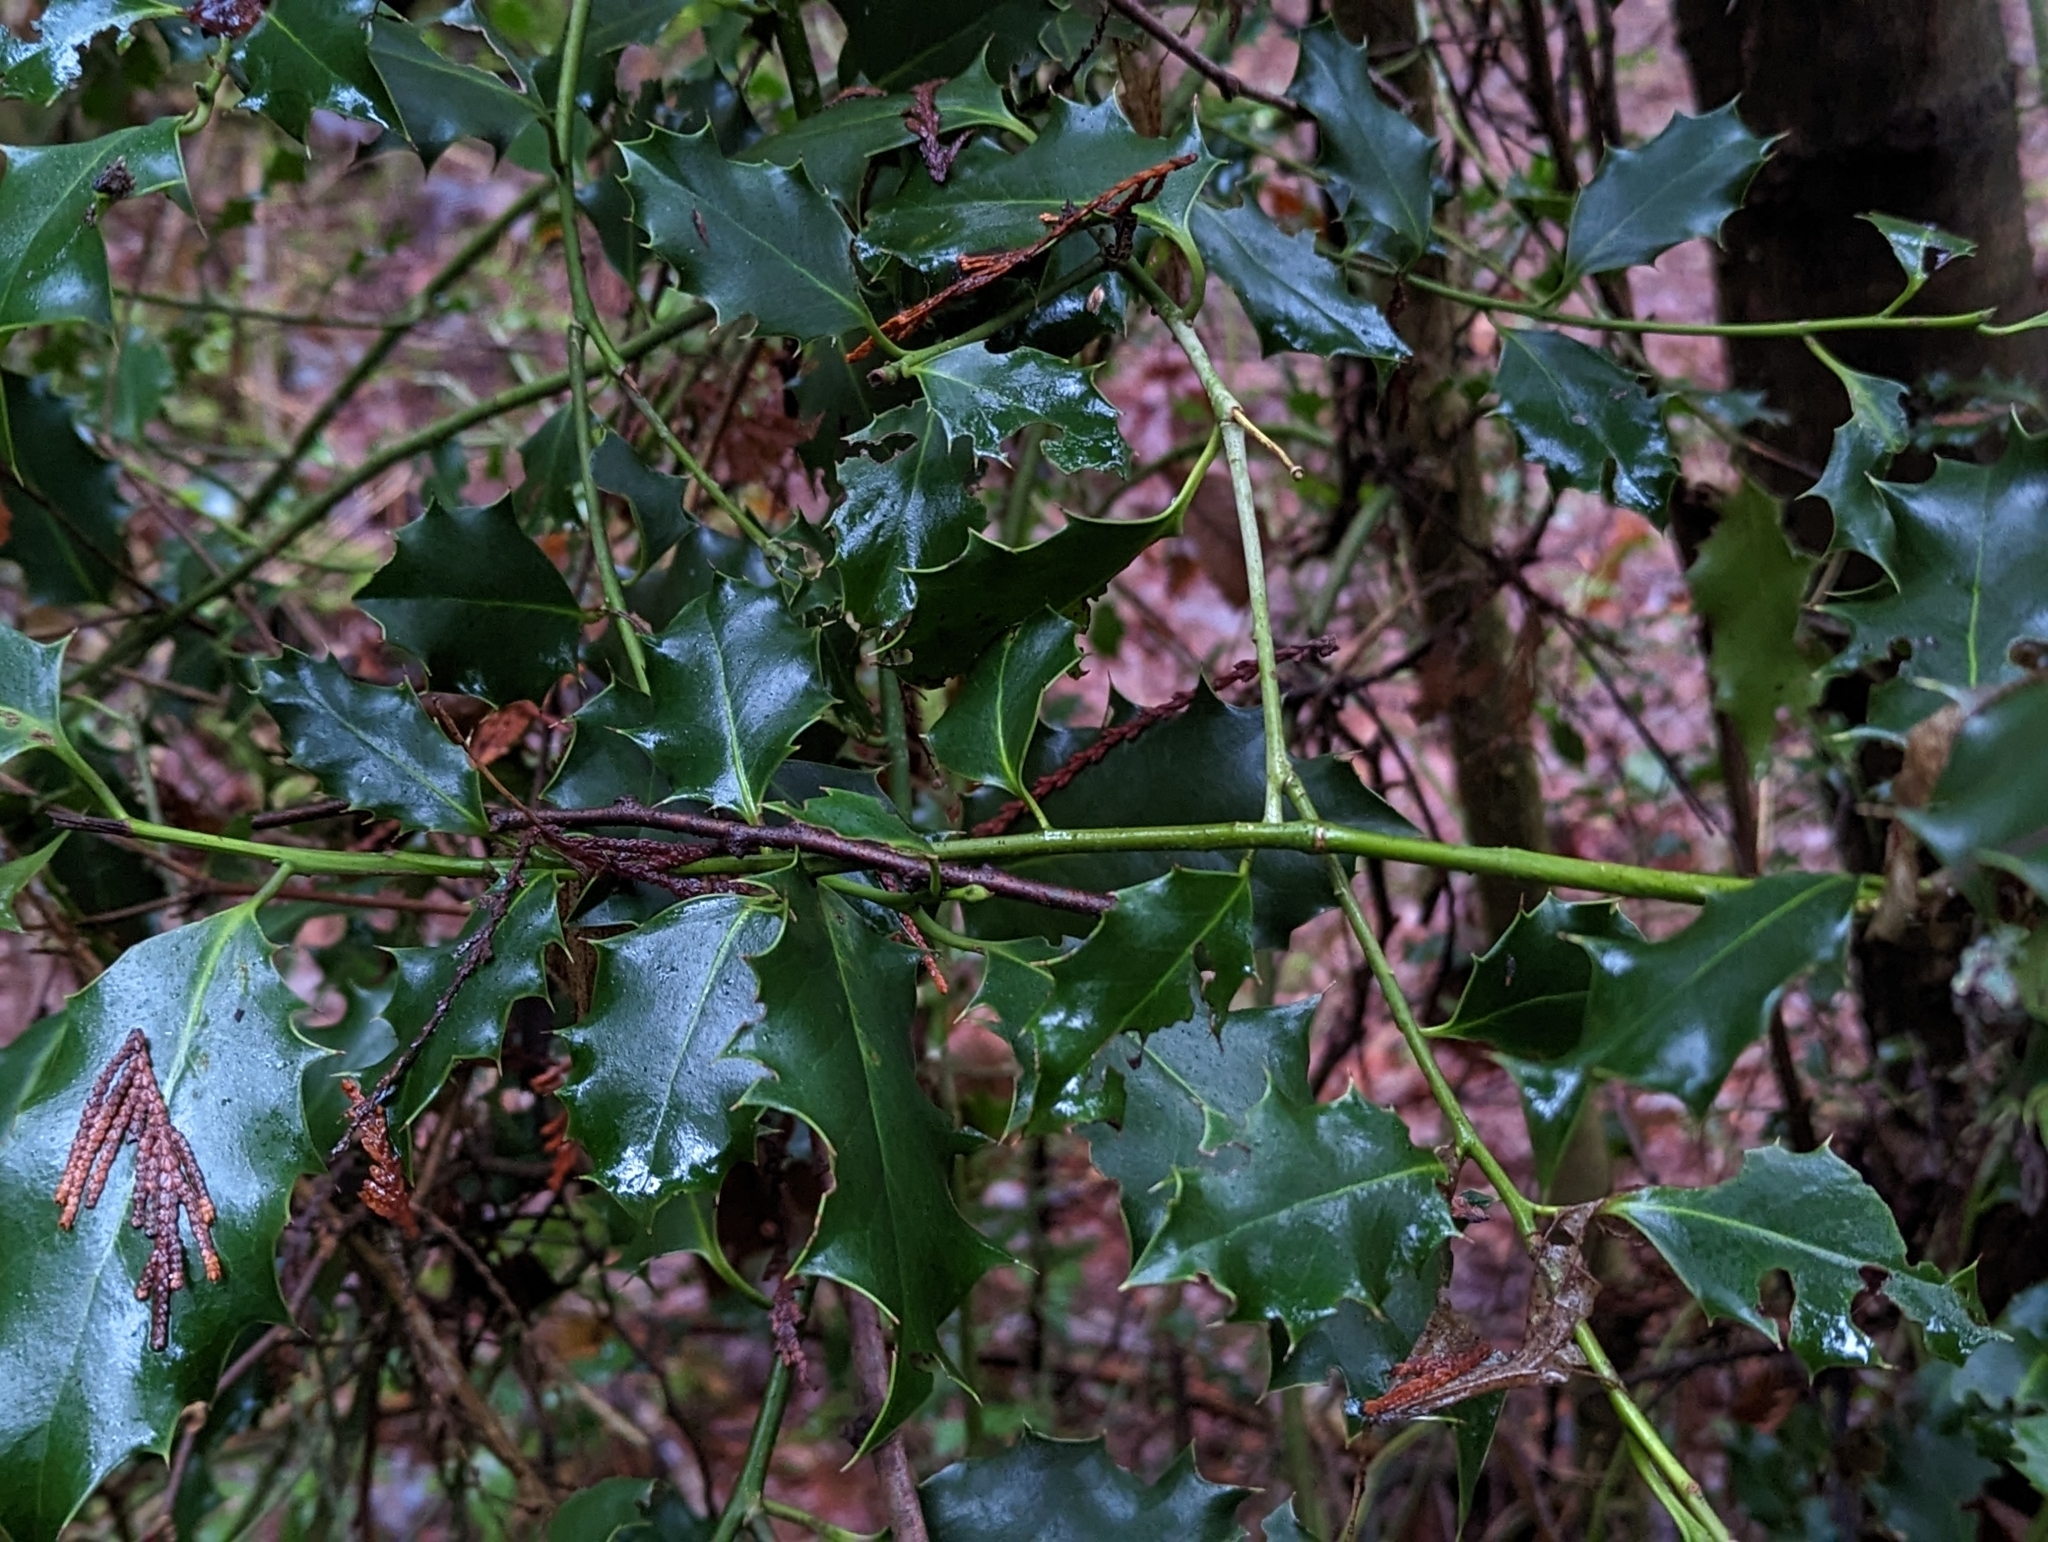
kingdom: Plantae
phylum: Tracheophyta
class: Magnoliopsida
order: Aquifoliales
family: Aquifoliaceae
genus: Ilex
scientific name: Ilex aquifolium
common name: English holly
